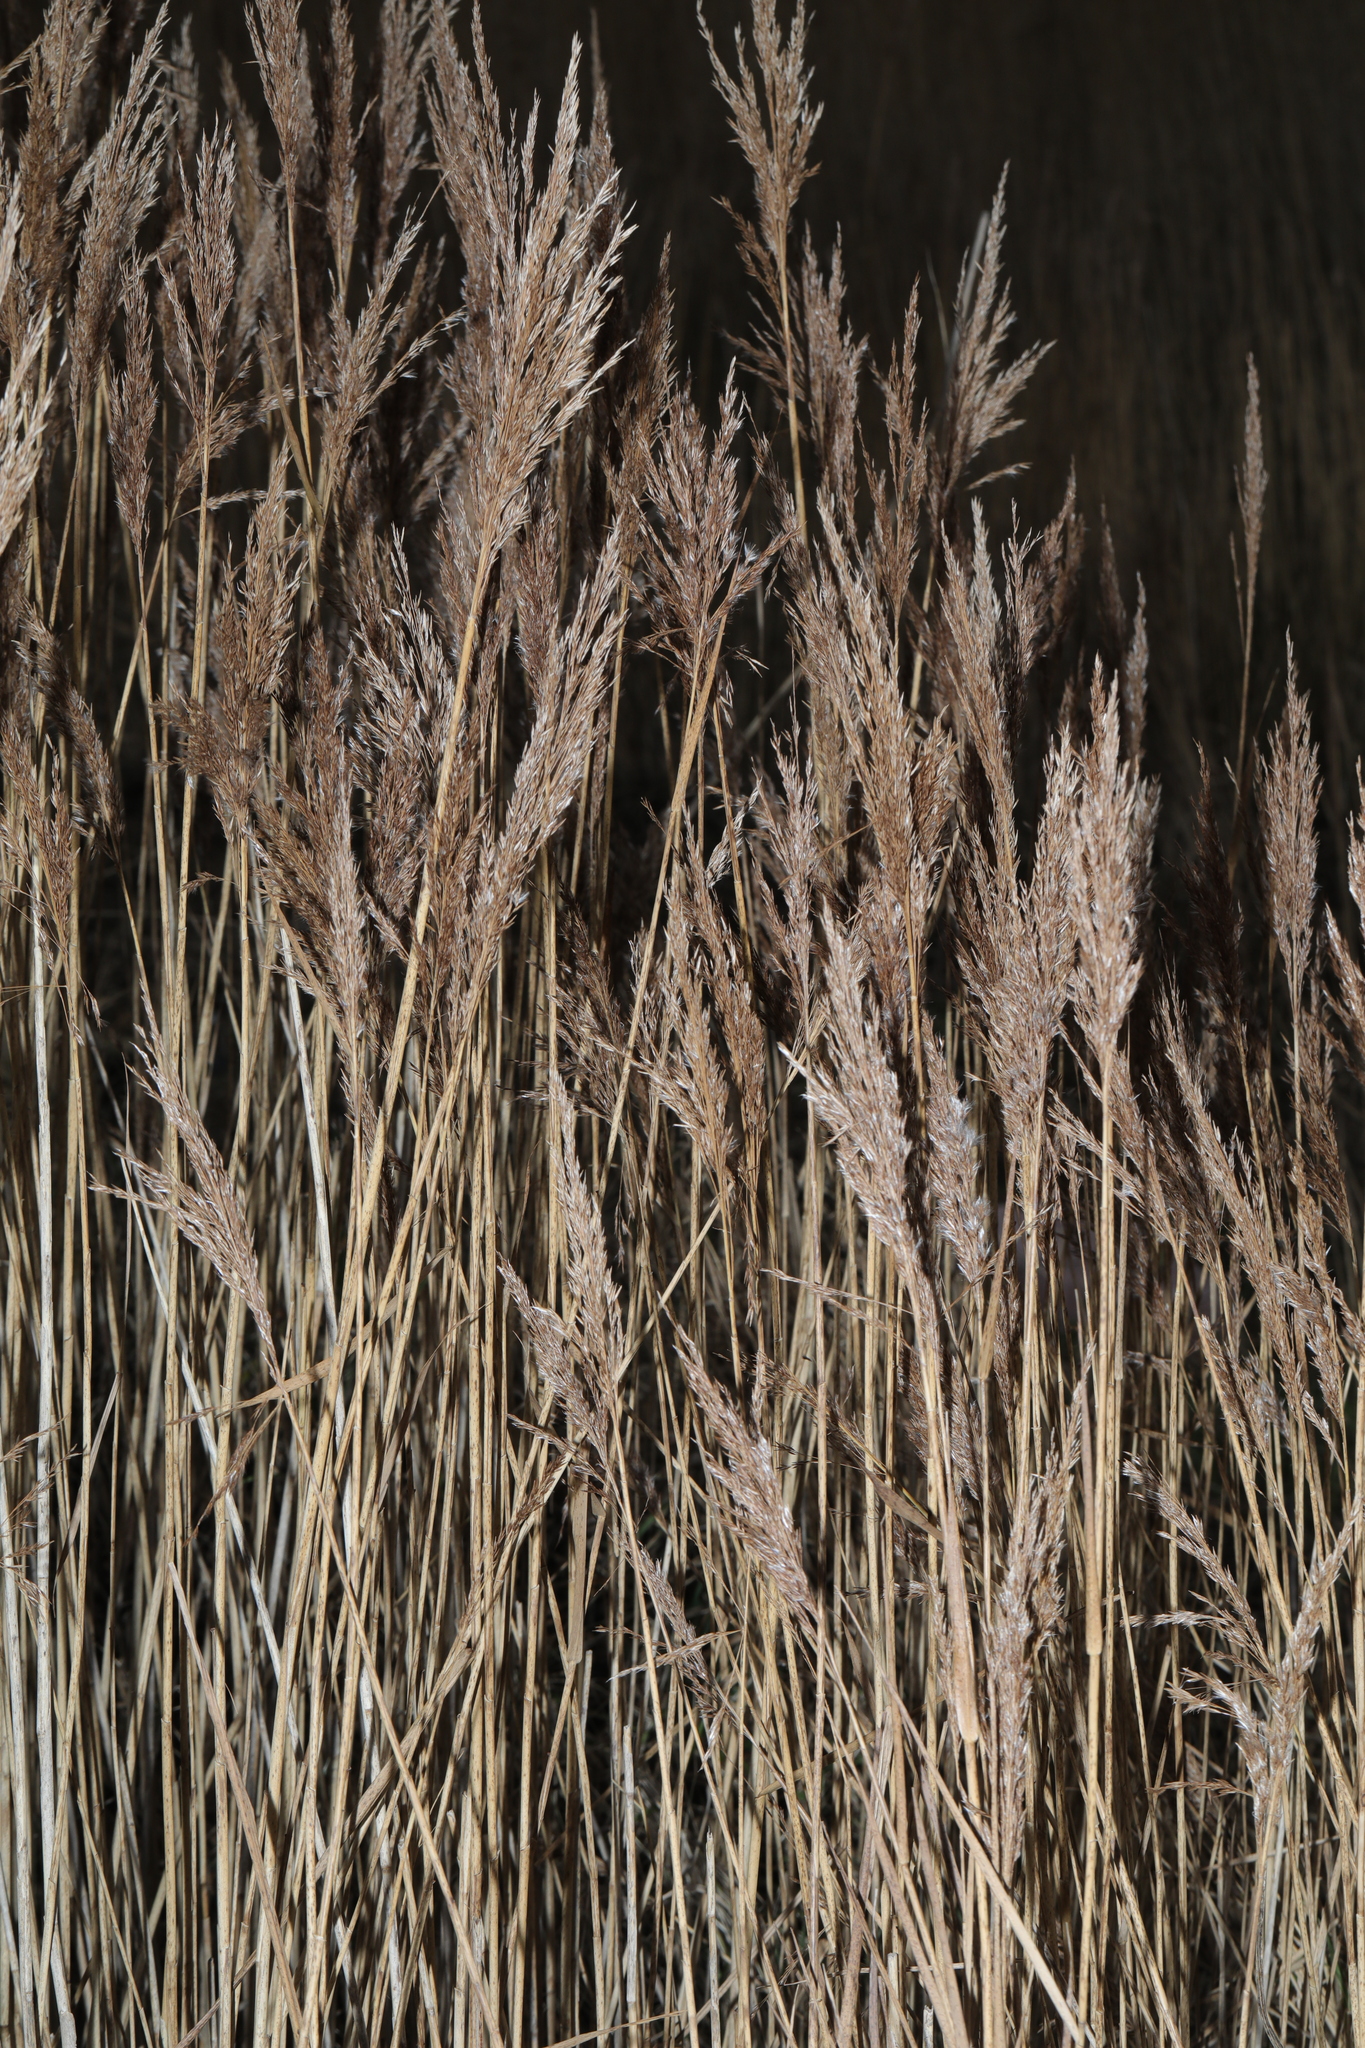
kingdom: Plantae
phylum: Tracheophyta
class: Liliopsida
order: Poales
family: Poaceae
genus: Phragmites
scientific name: Phragmites australis
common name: Common reed
